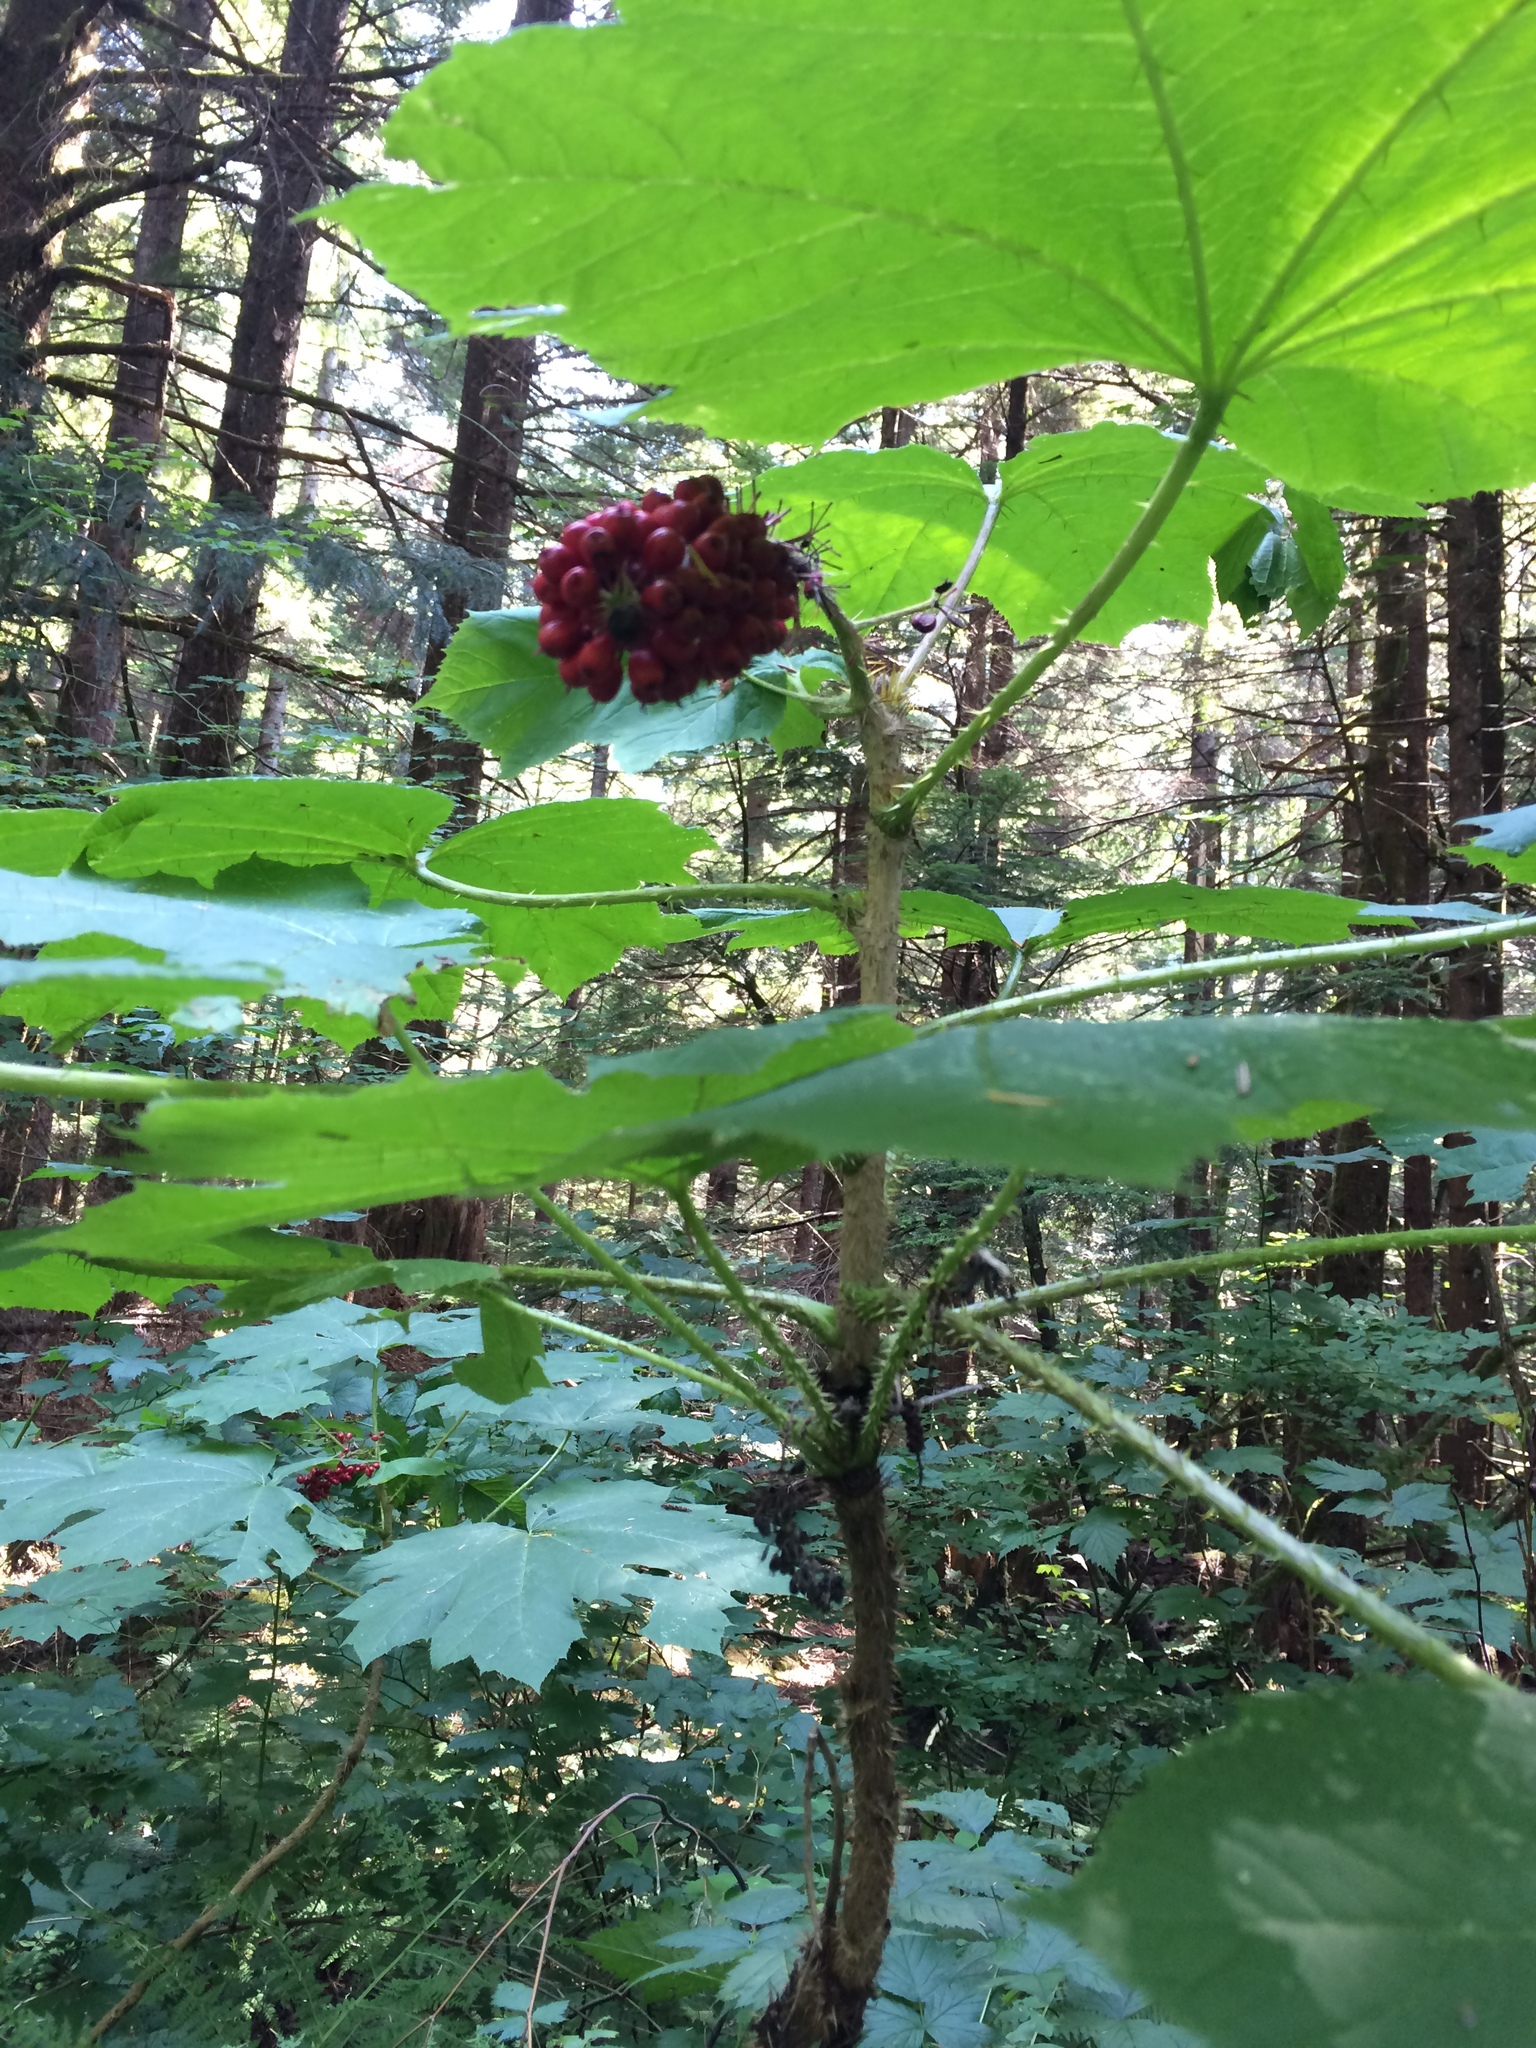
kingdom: Plantae
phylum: Tracheophyta
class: Magnoliopsida
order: Apiales
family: Araliaceae
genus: Oplopanax
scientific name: Oplopanax horridus
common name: Devil's walking-stick
